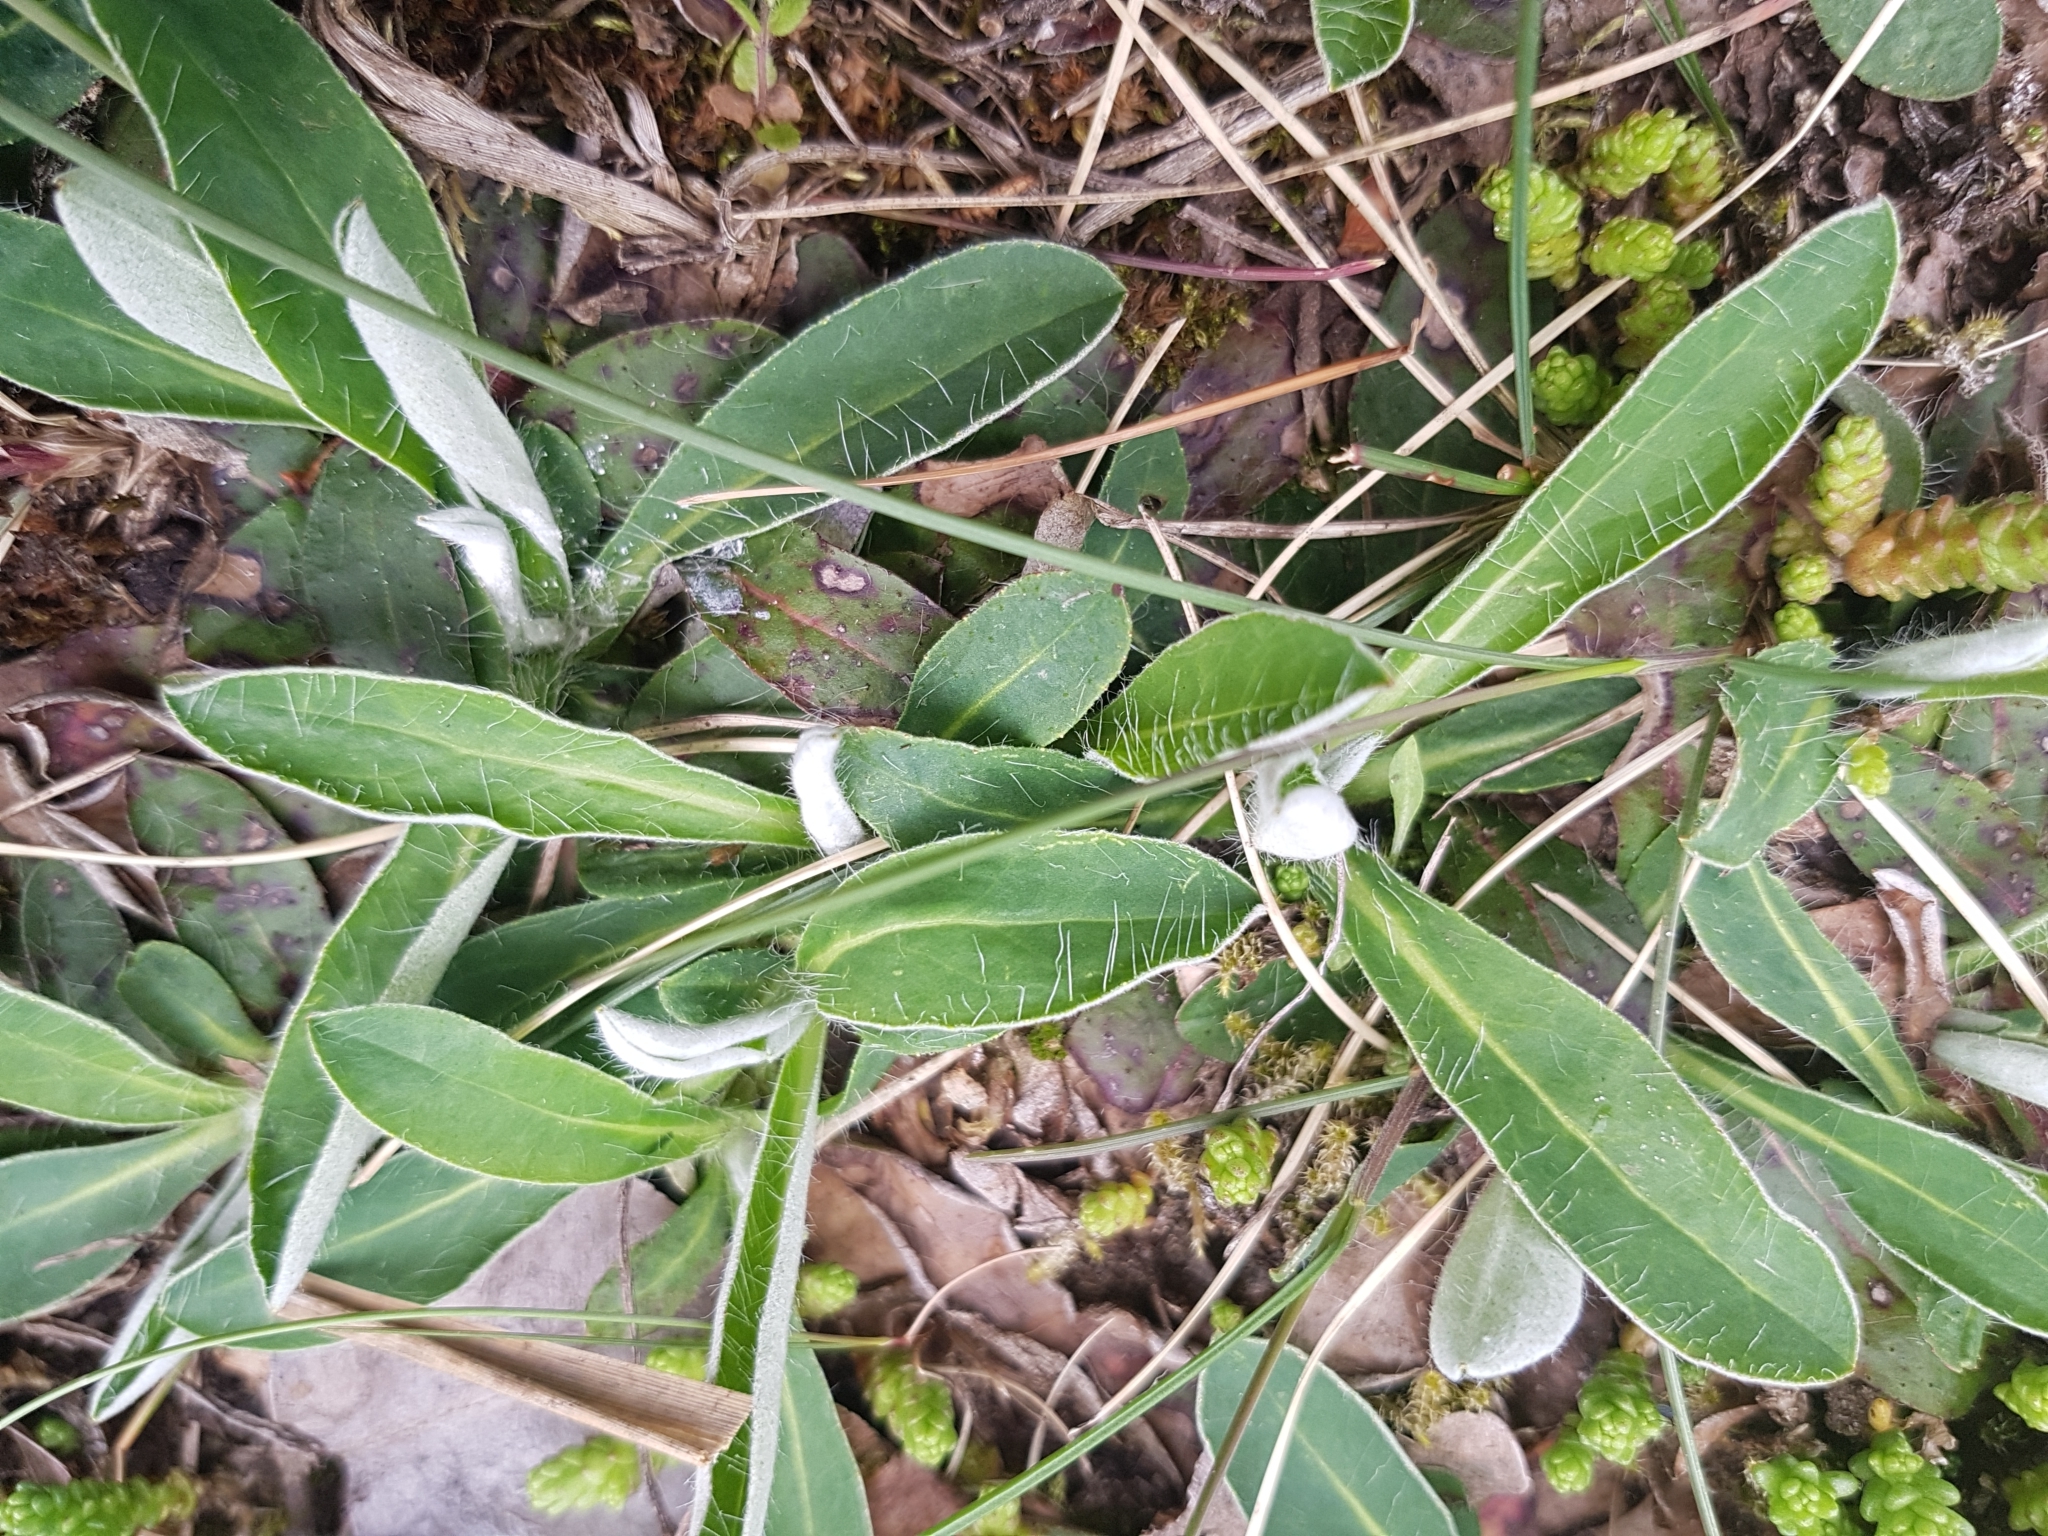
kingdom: Plantae
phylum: Tracheophyta
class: Magnoliopsida
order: Asterales
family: Asteraceae
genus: Pilosella
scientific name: Pilosella officinarum
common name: Mouse-ear hawkweed
